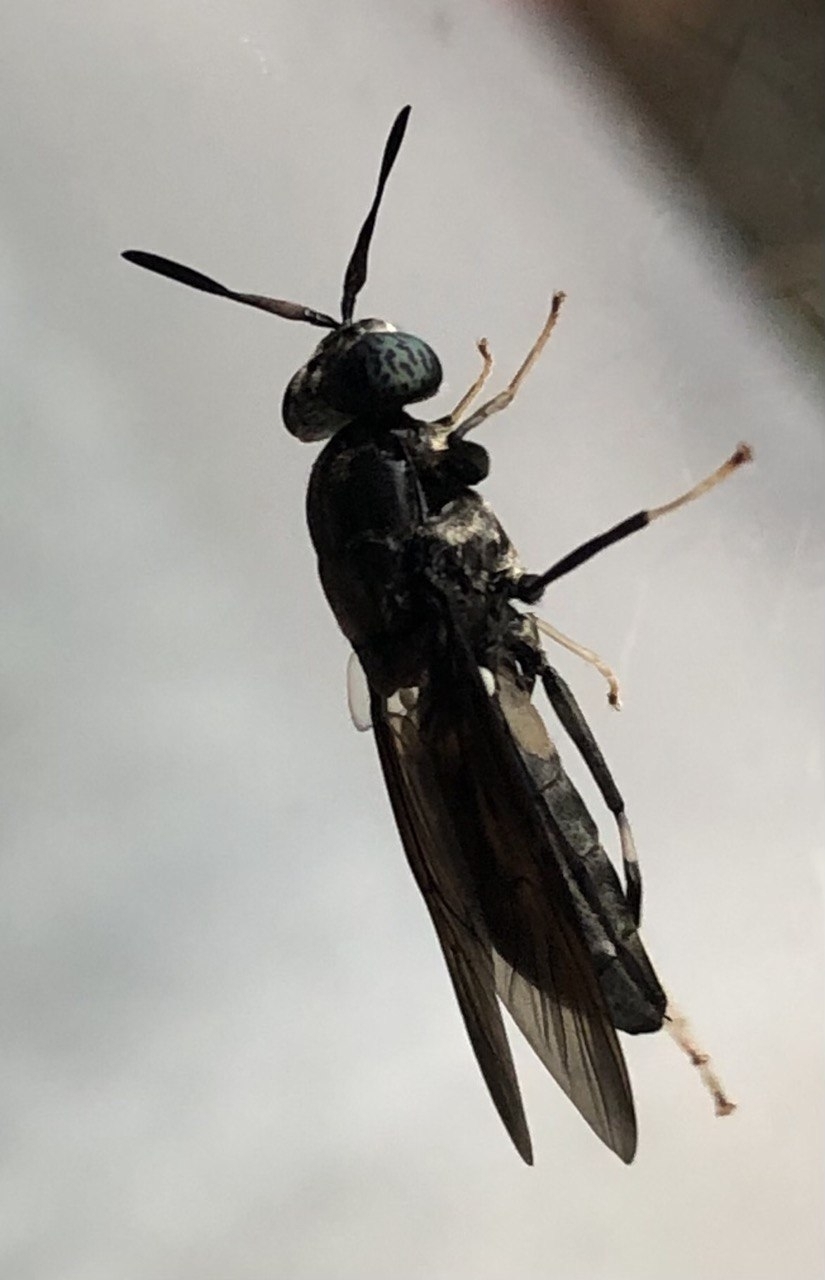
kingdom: Animalia
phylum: Arthropoda
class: Insecta
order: Diptera
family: Stratiomyidae
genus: Hermetia
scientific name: Hermetia illucens
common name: Black soldier fly
